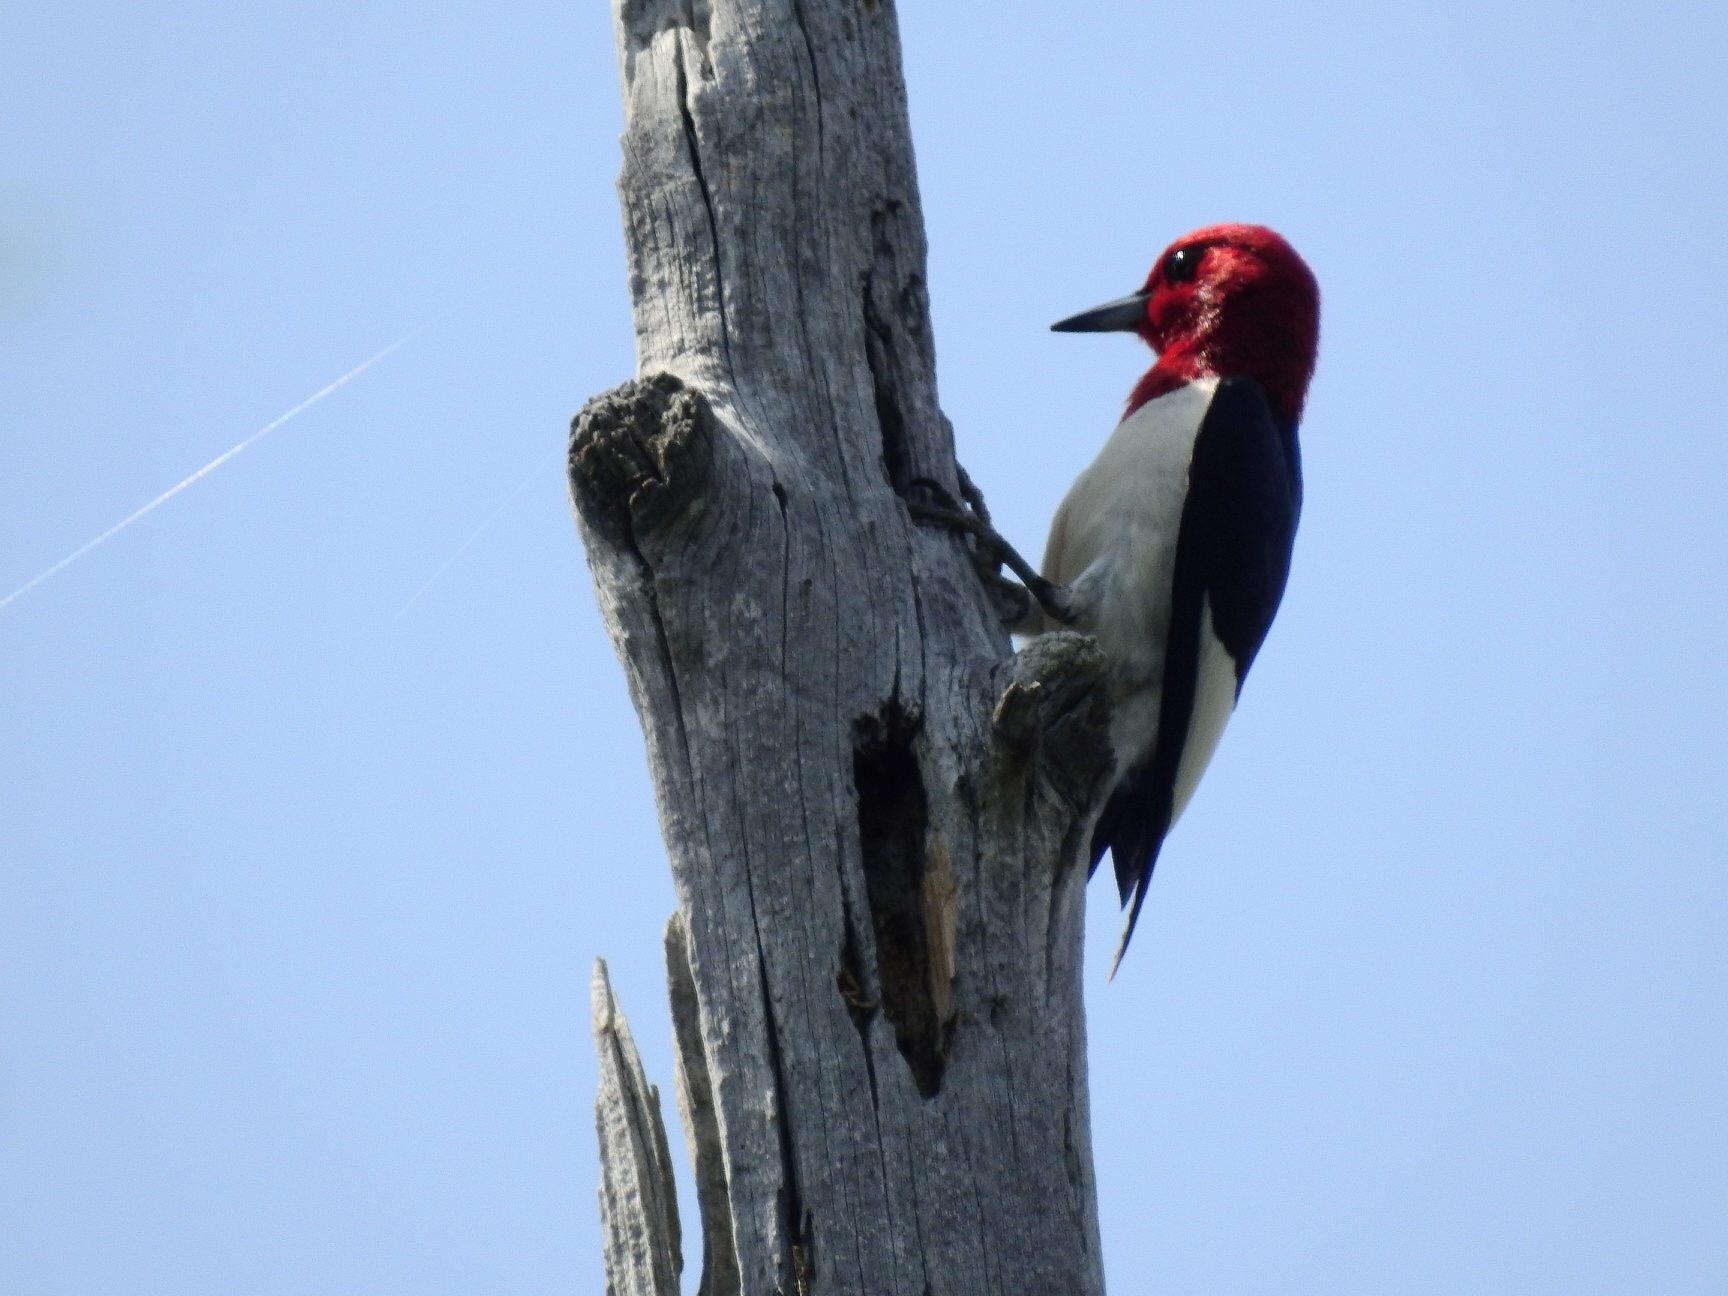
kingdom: Animalia
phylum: Chordata
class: Aves
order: Piciformes
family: Picidae
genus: Melanerpes
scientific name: Melanerpes erythrocephalus
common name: Red-headed woodpecker
